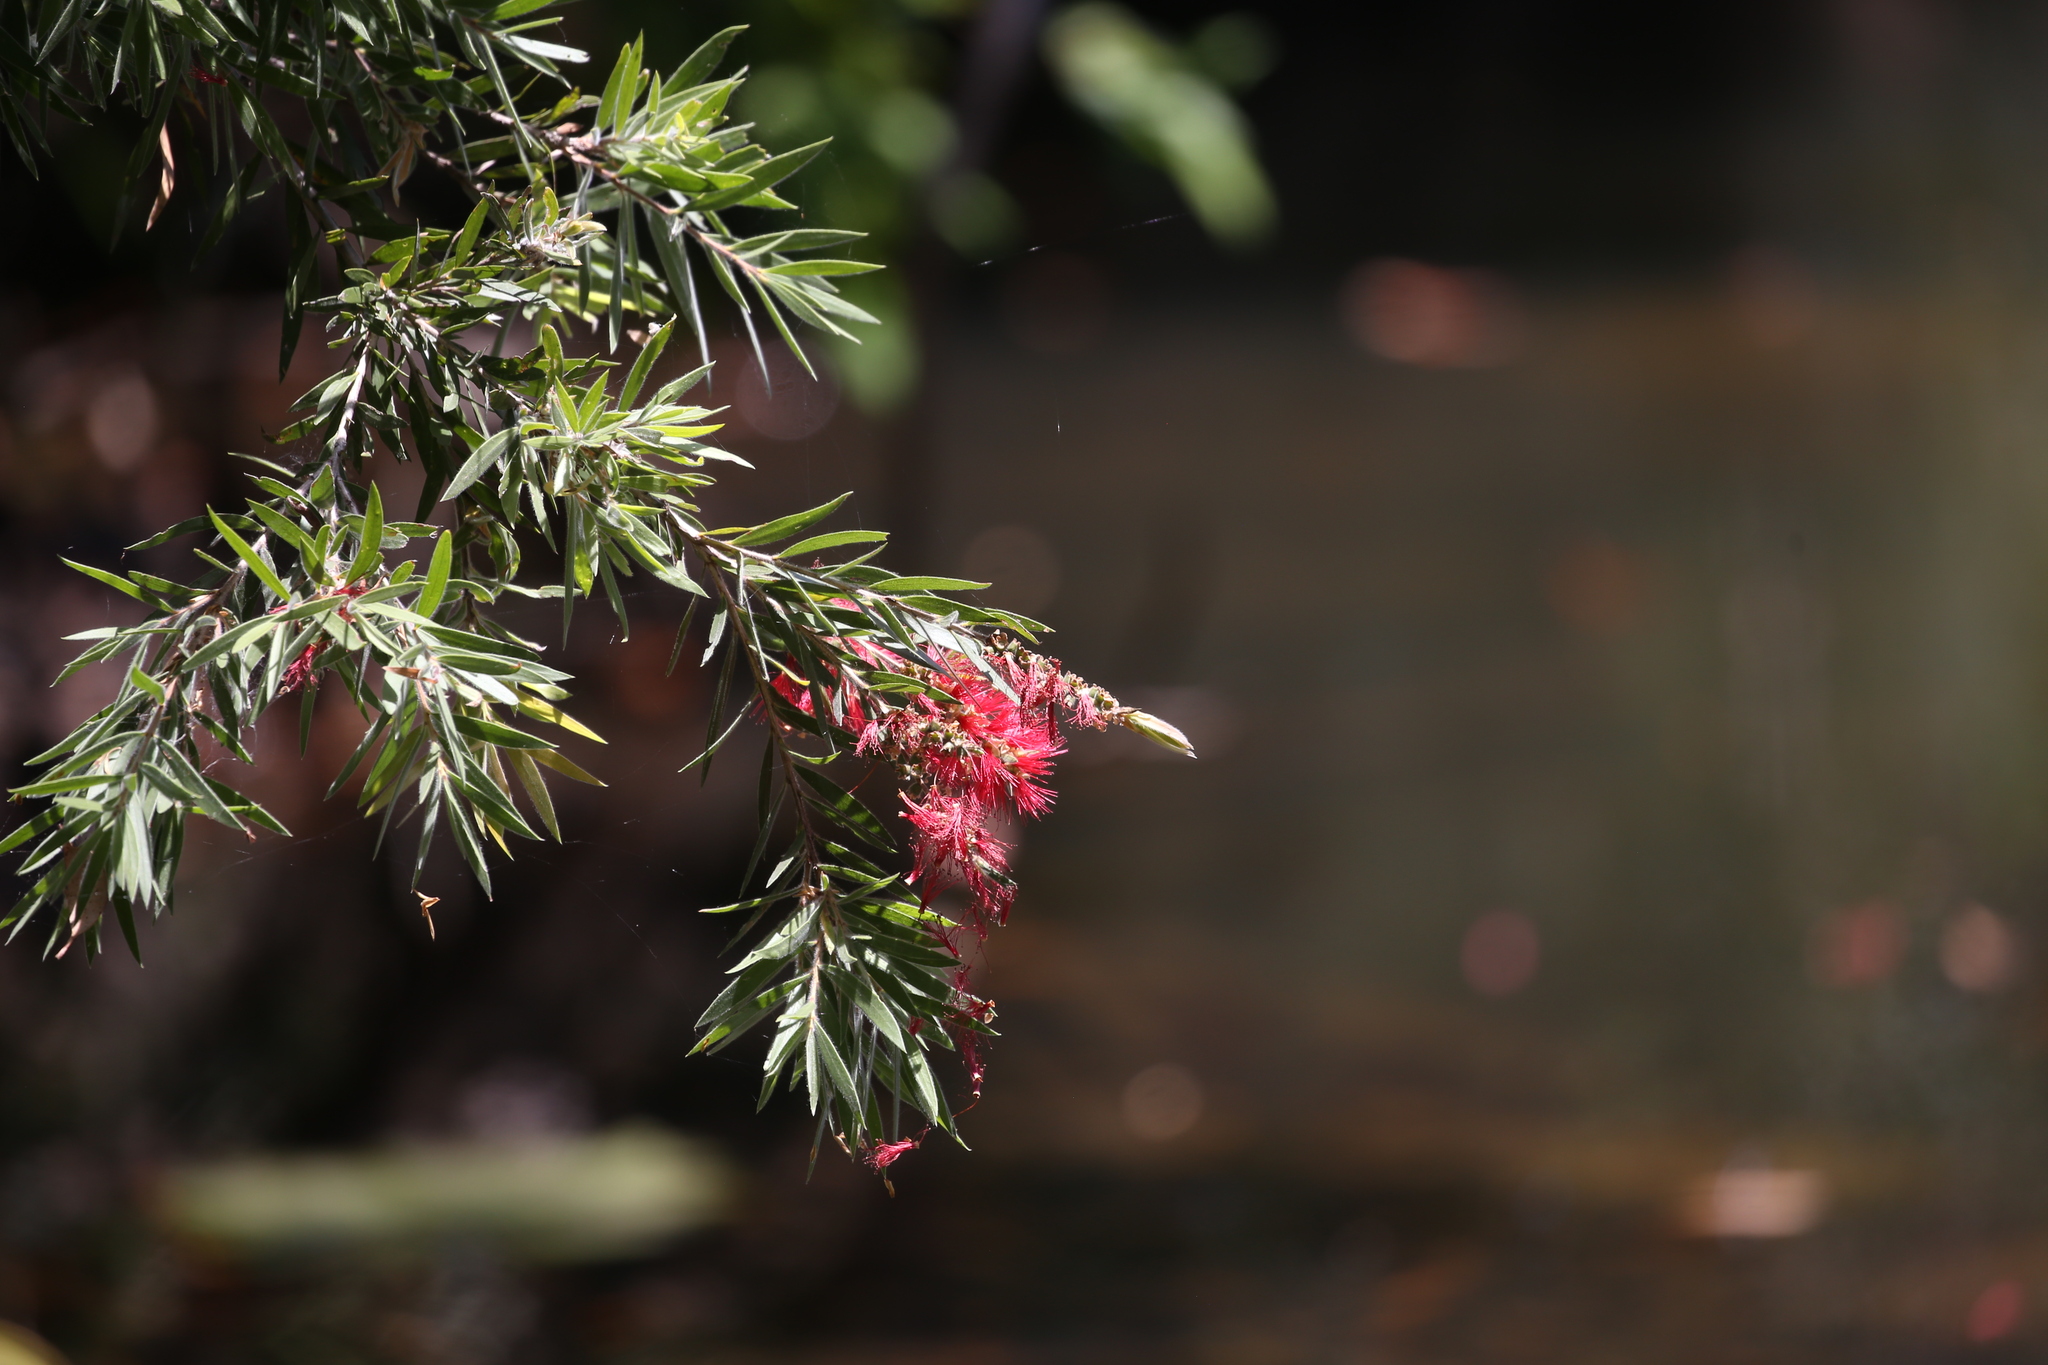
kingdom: Plantae
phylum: Tracheophyta
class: Magnoliopsida
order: Myrtales
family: Myrtaceae
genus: Callistemon
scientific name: Callistemon viminalis
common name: Drooping bottlebrush
